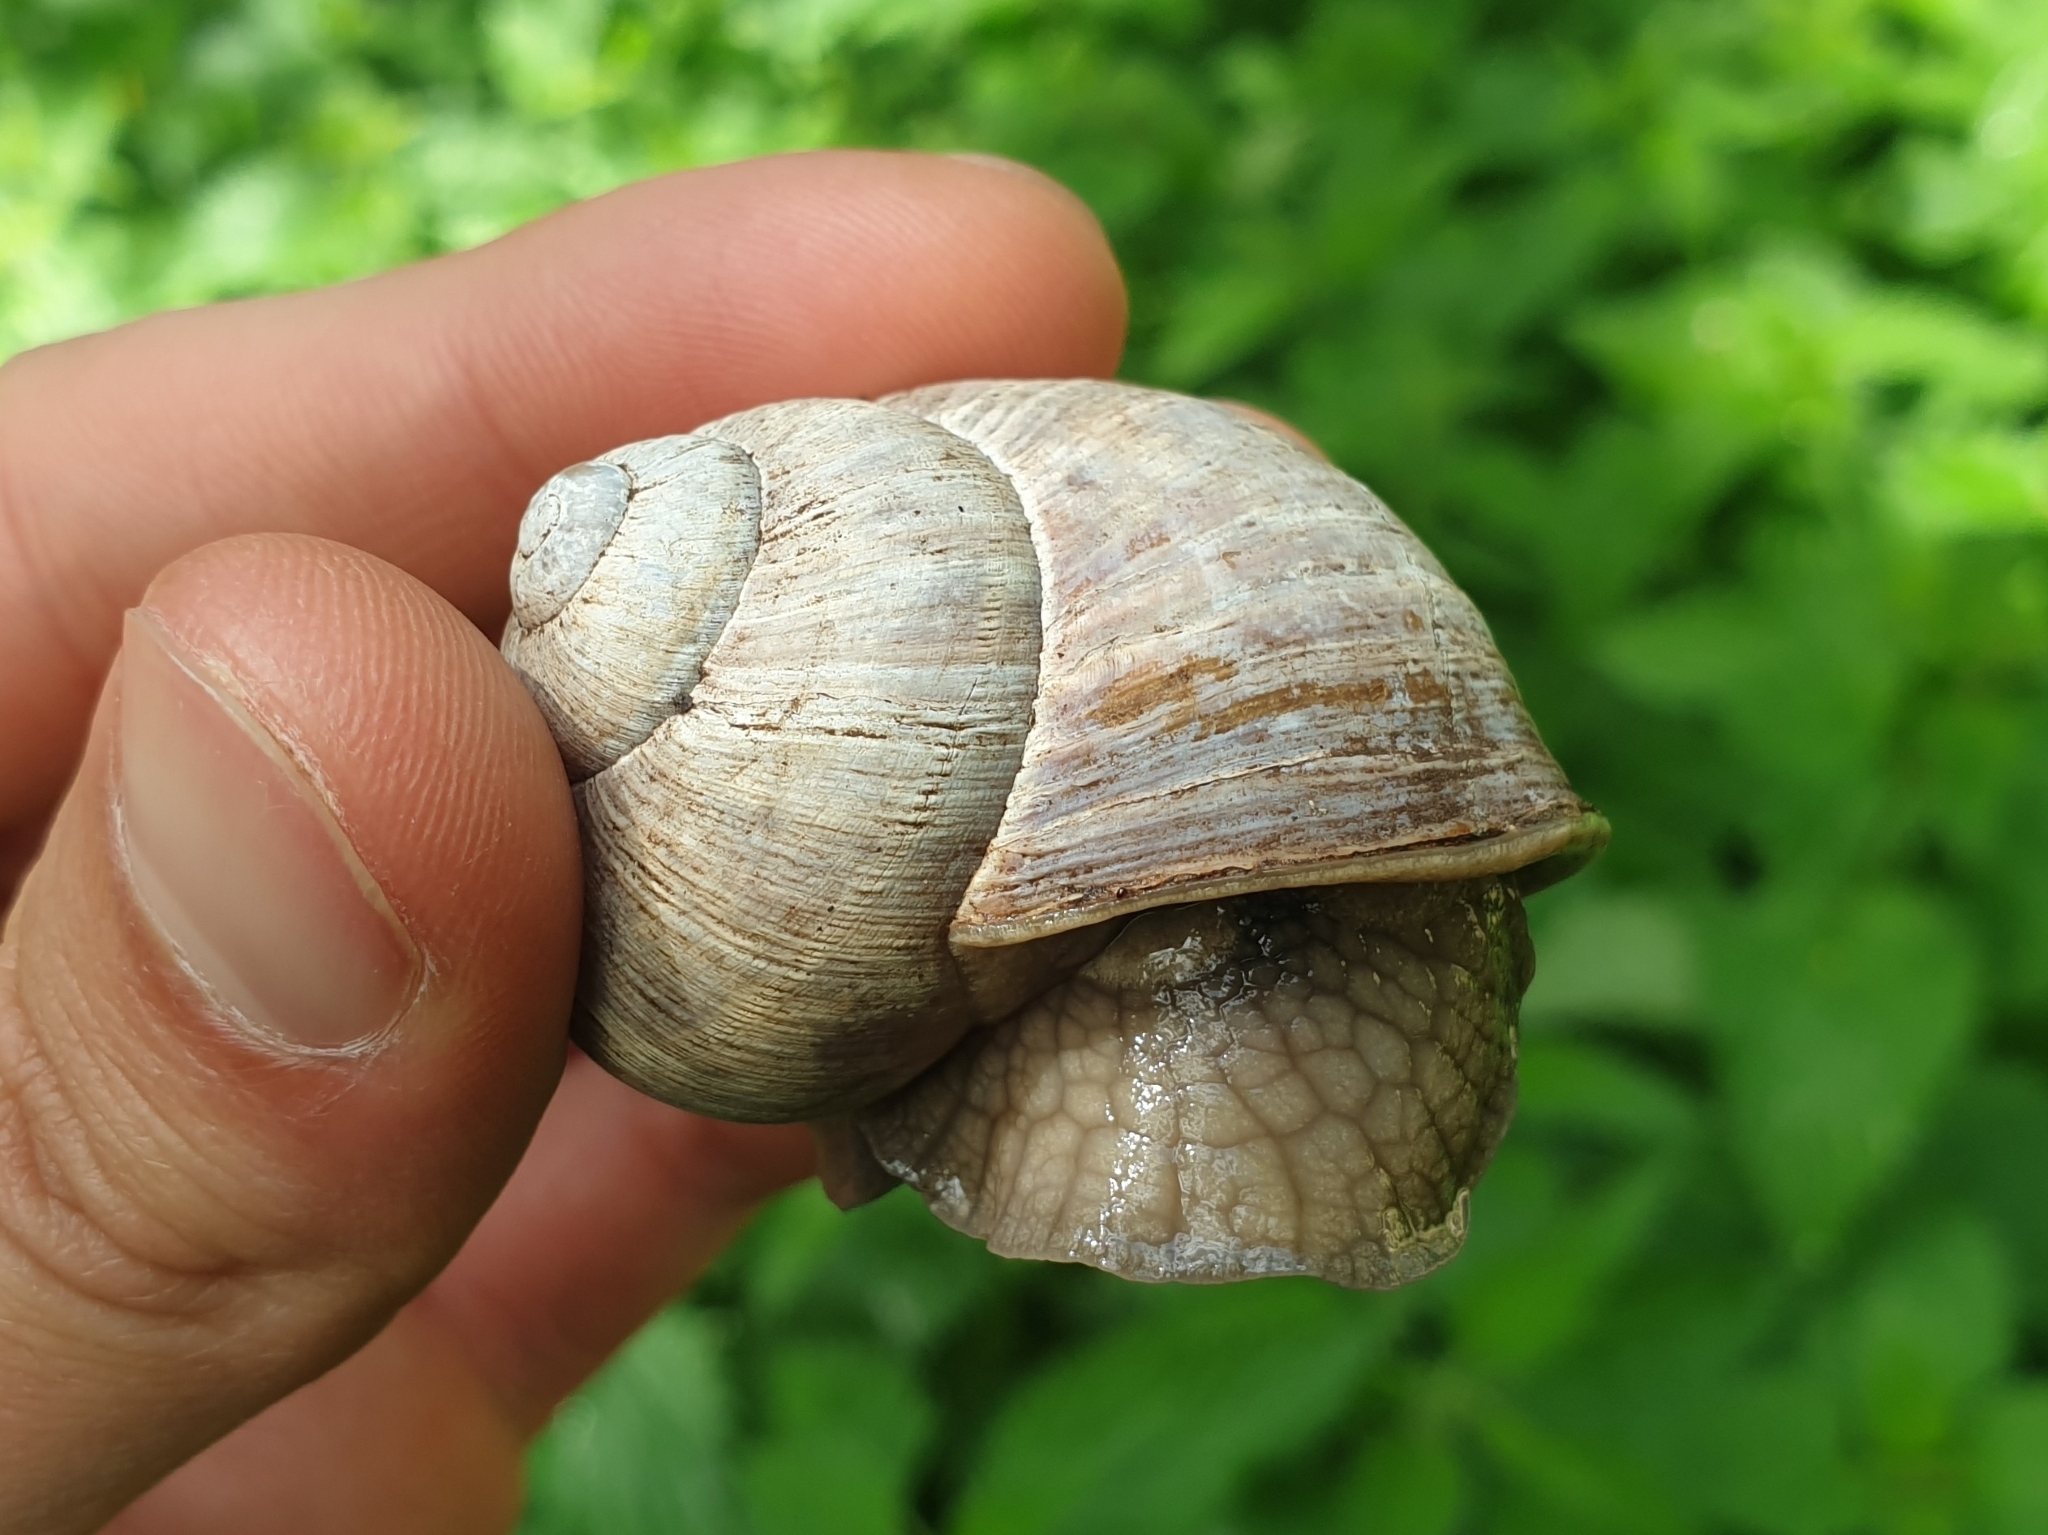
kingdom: Animalia
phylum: Mollusca
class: Gastropoda
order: Stylommatophora
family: Helicidae
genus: Helix
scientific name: Helix pomatia
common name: Roman snail
